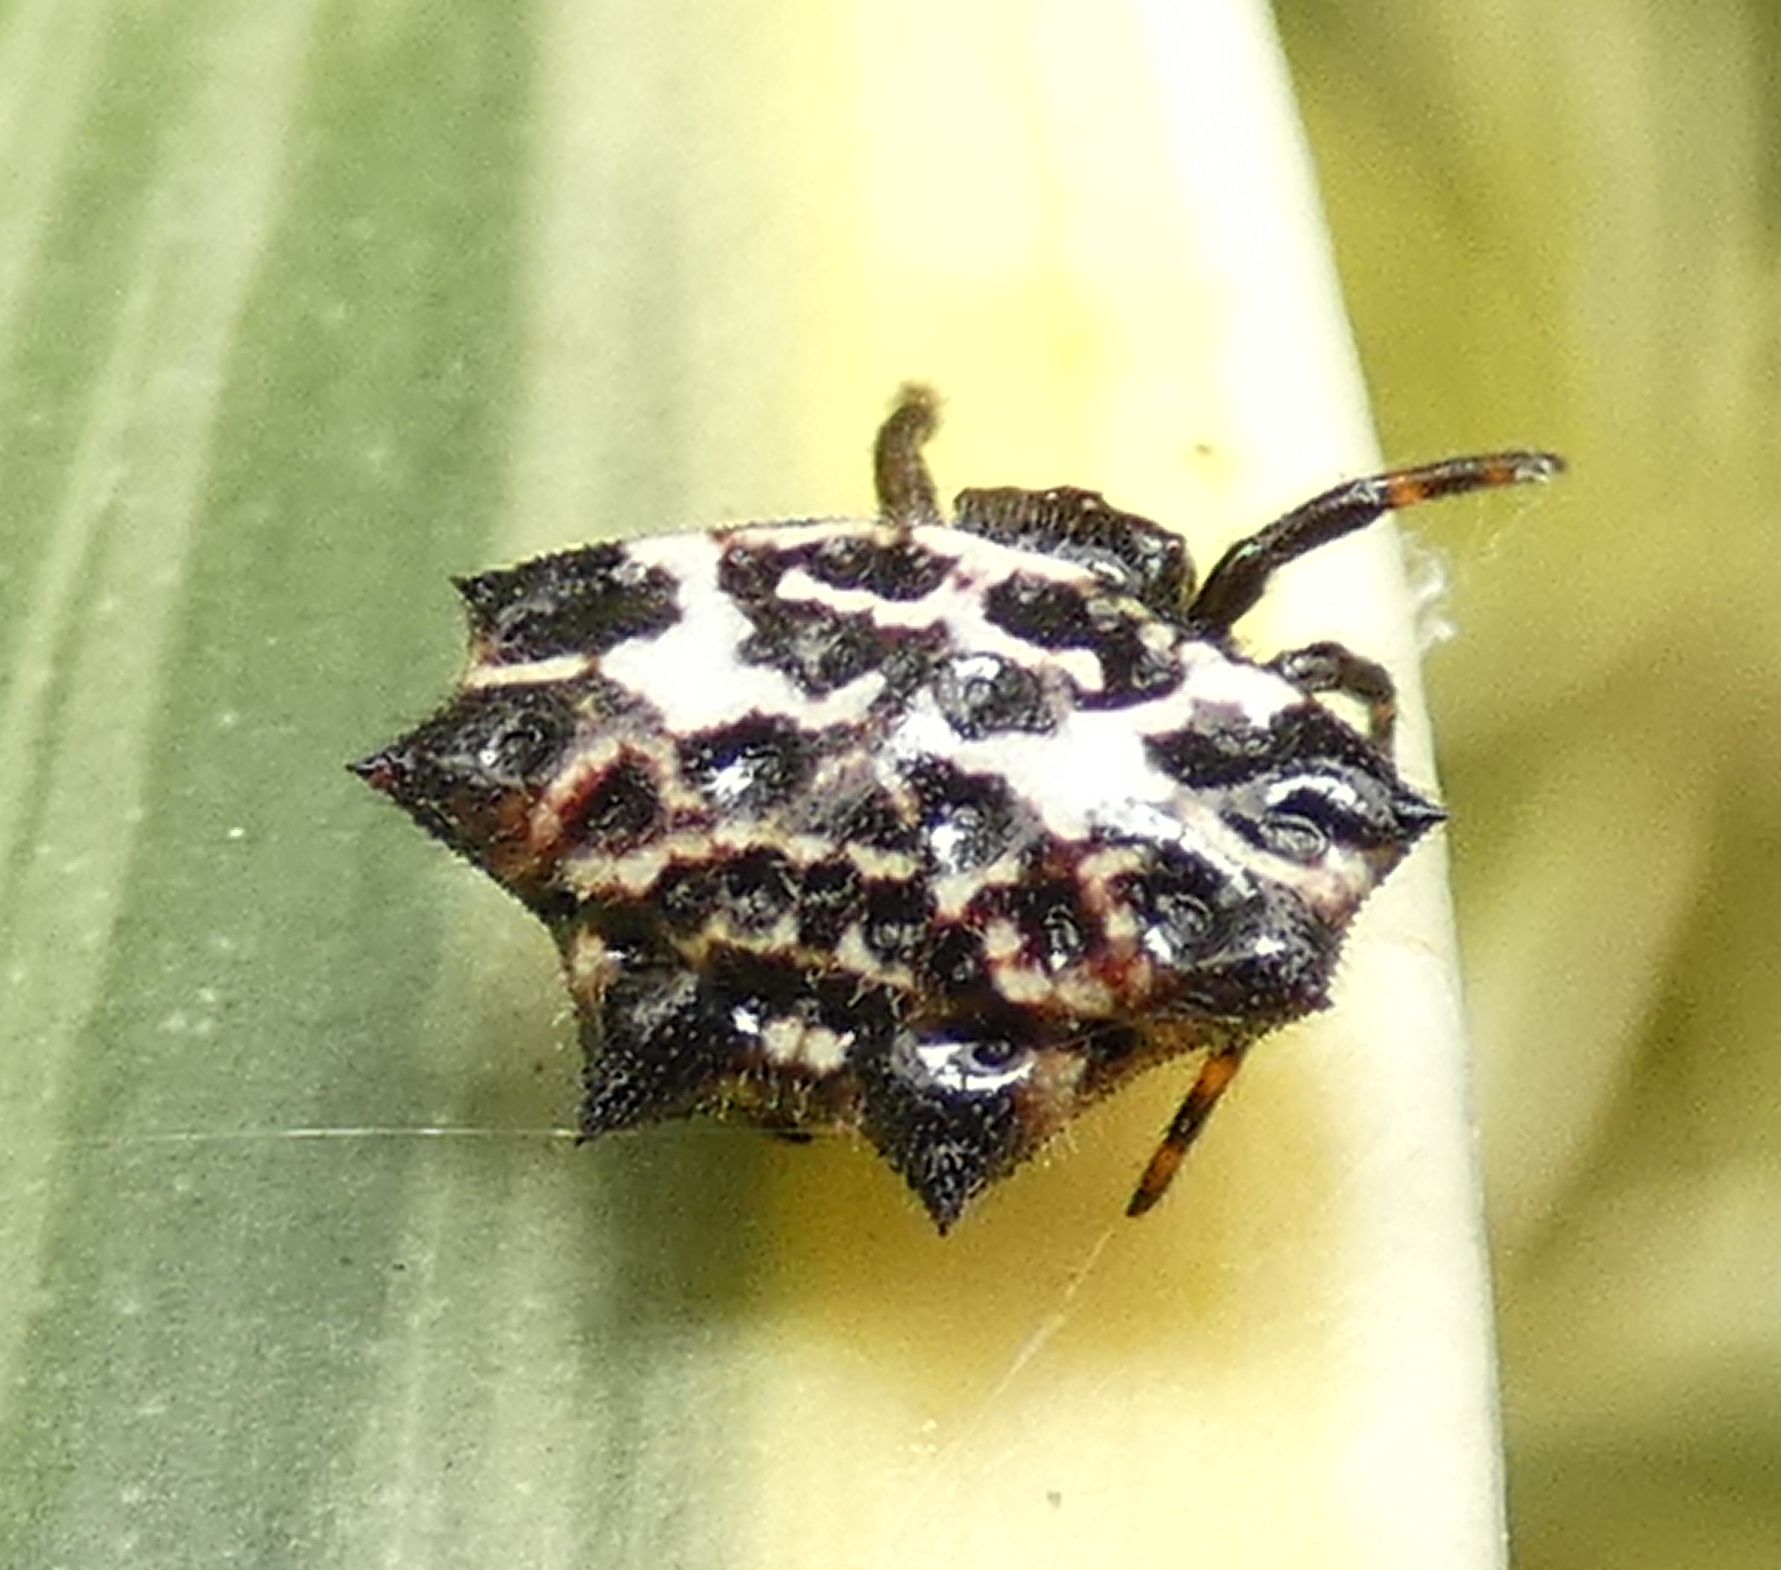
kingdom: Animalia
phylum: Arthropoda
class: Arachnida
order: Araneae
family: Araneidae
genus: Gasteracantha
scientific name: Gasteracantha cancriformis
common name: Orb weavers
